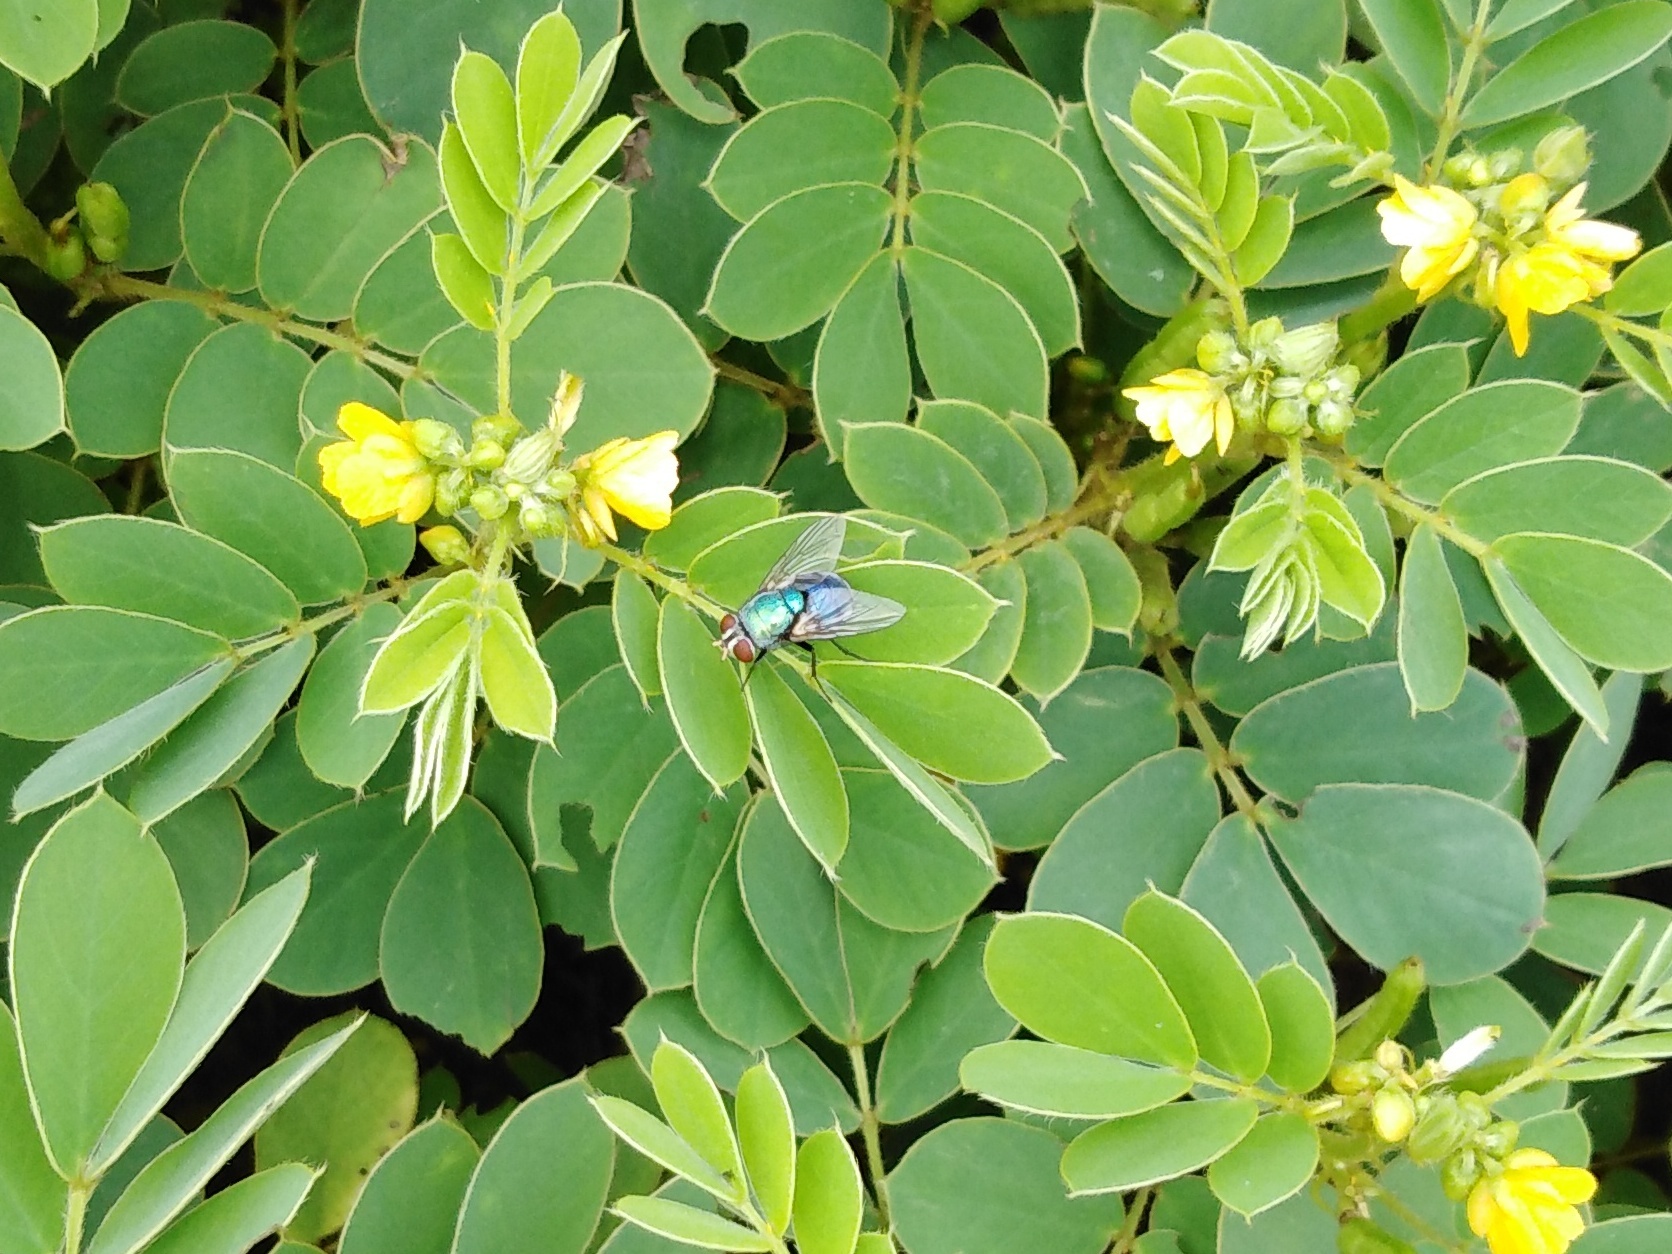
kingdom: Animalia
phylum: Arthropoda
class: Insecta
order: Diptera
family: Calliphoridae
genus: Chrysomya
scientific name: Chrysomya megacephala
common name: Blow fly
